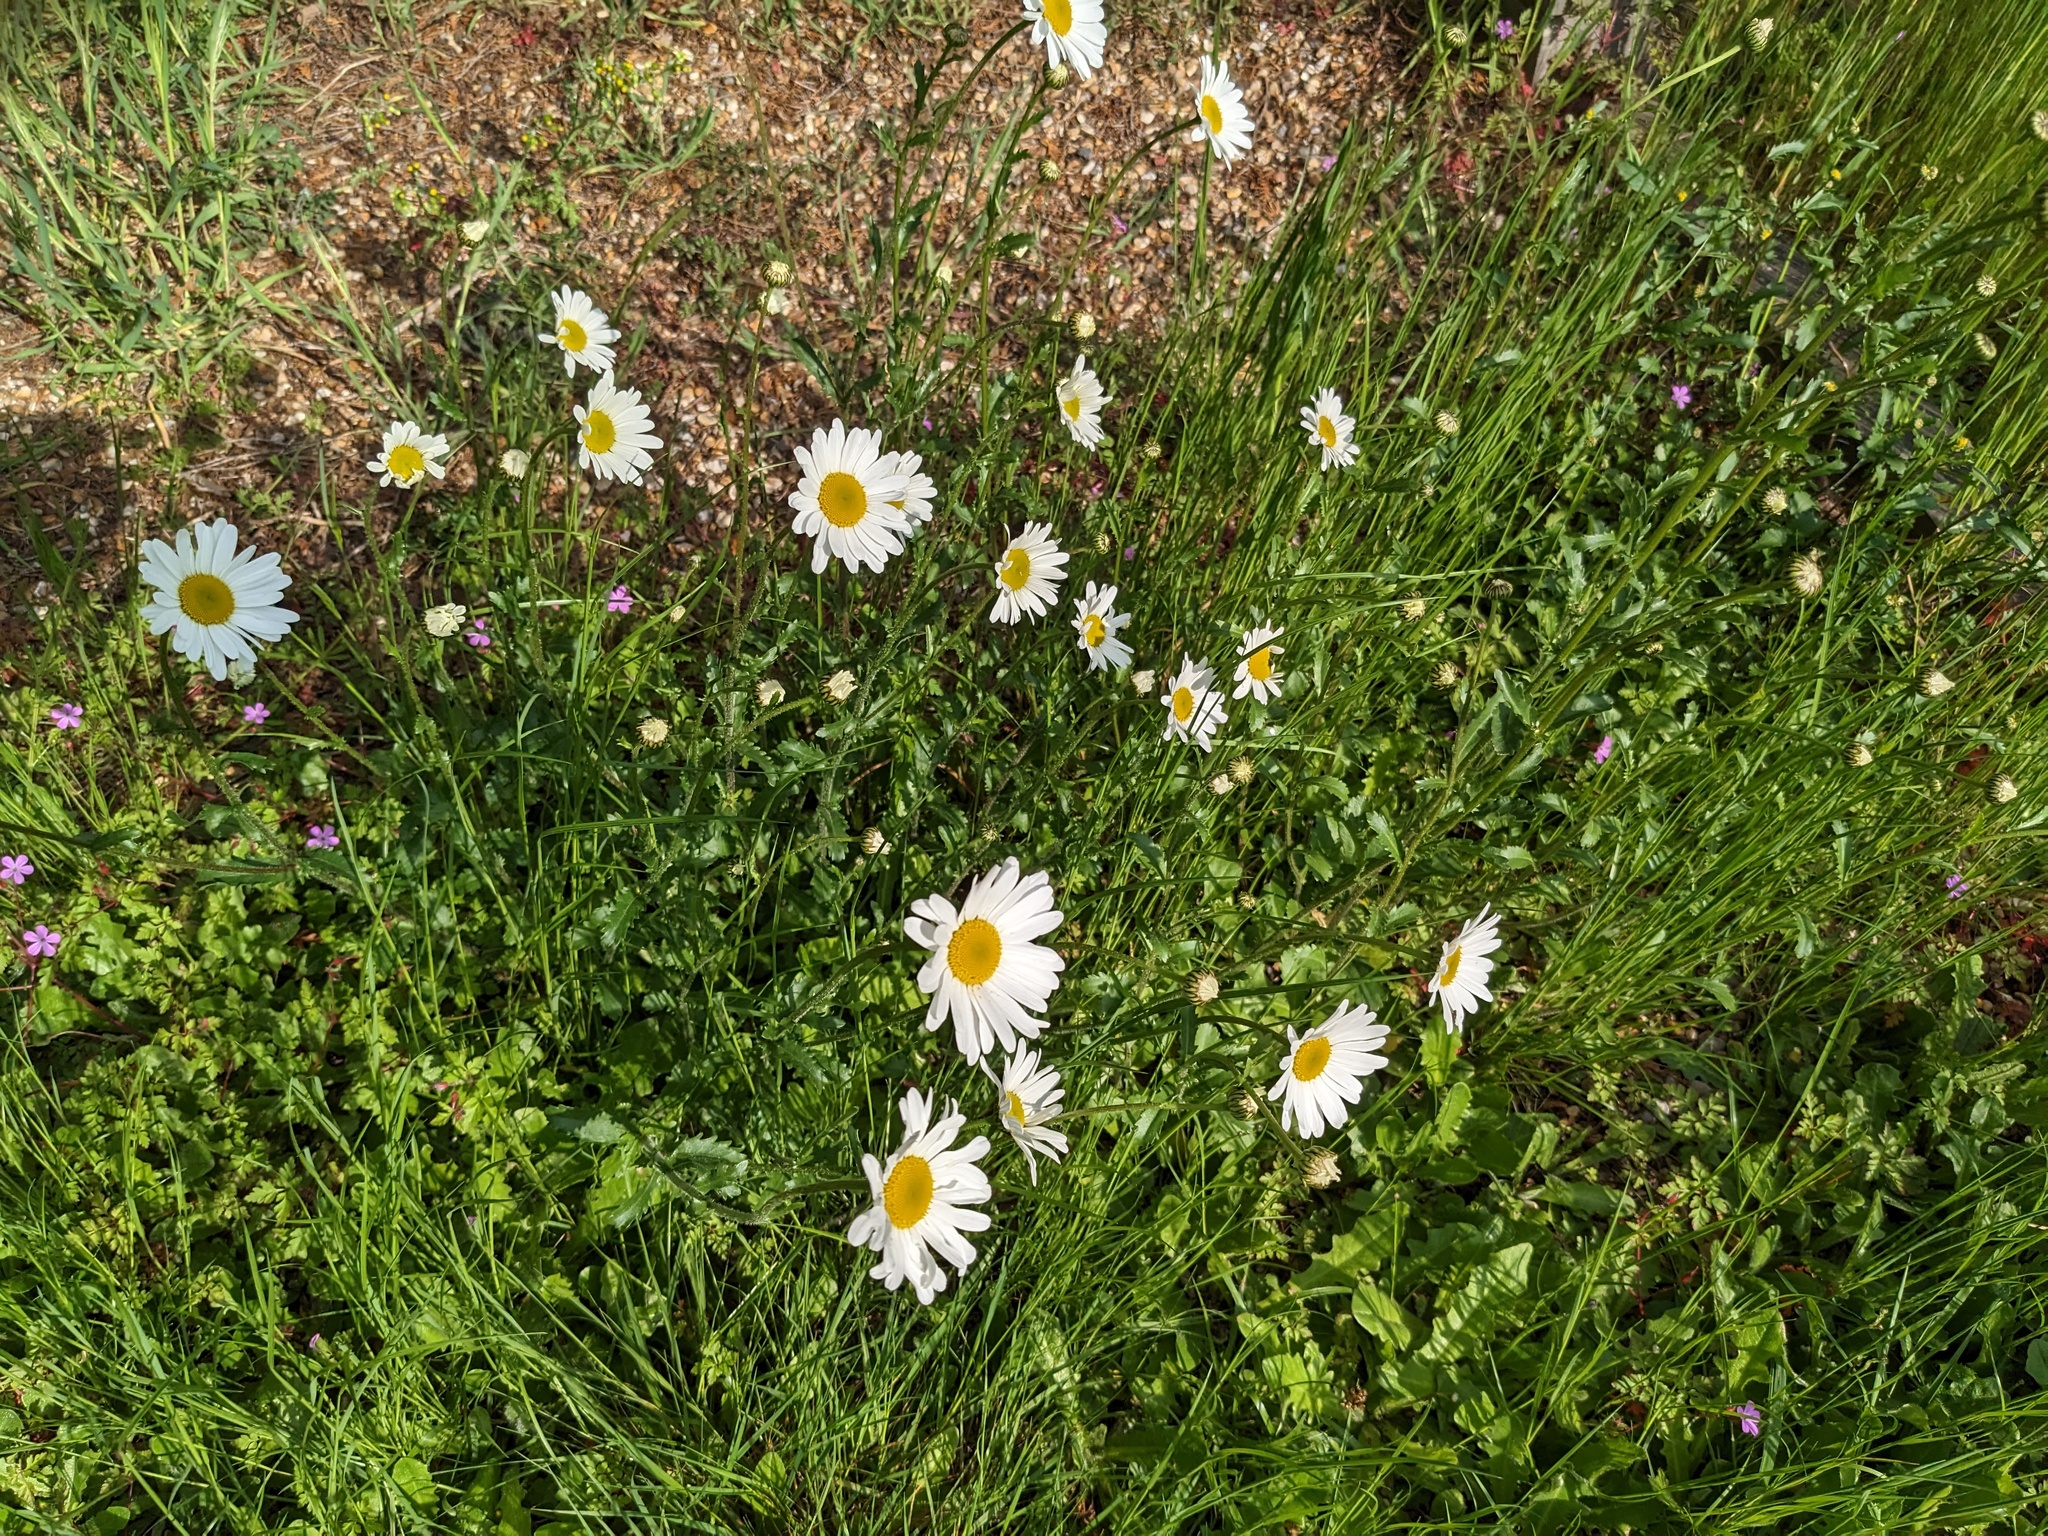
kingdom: Plantae
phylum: Tracheophyta
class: Magnoliopsida
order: Asterales
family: Asteraceae
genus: Leucanthemum
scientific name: Leucanthemum vulgare
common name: Oxeye daisy
